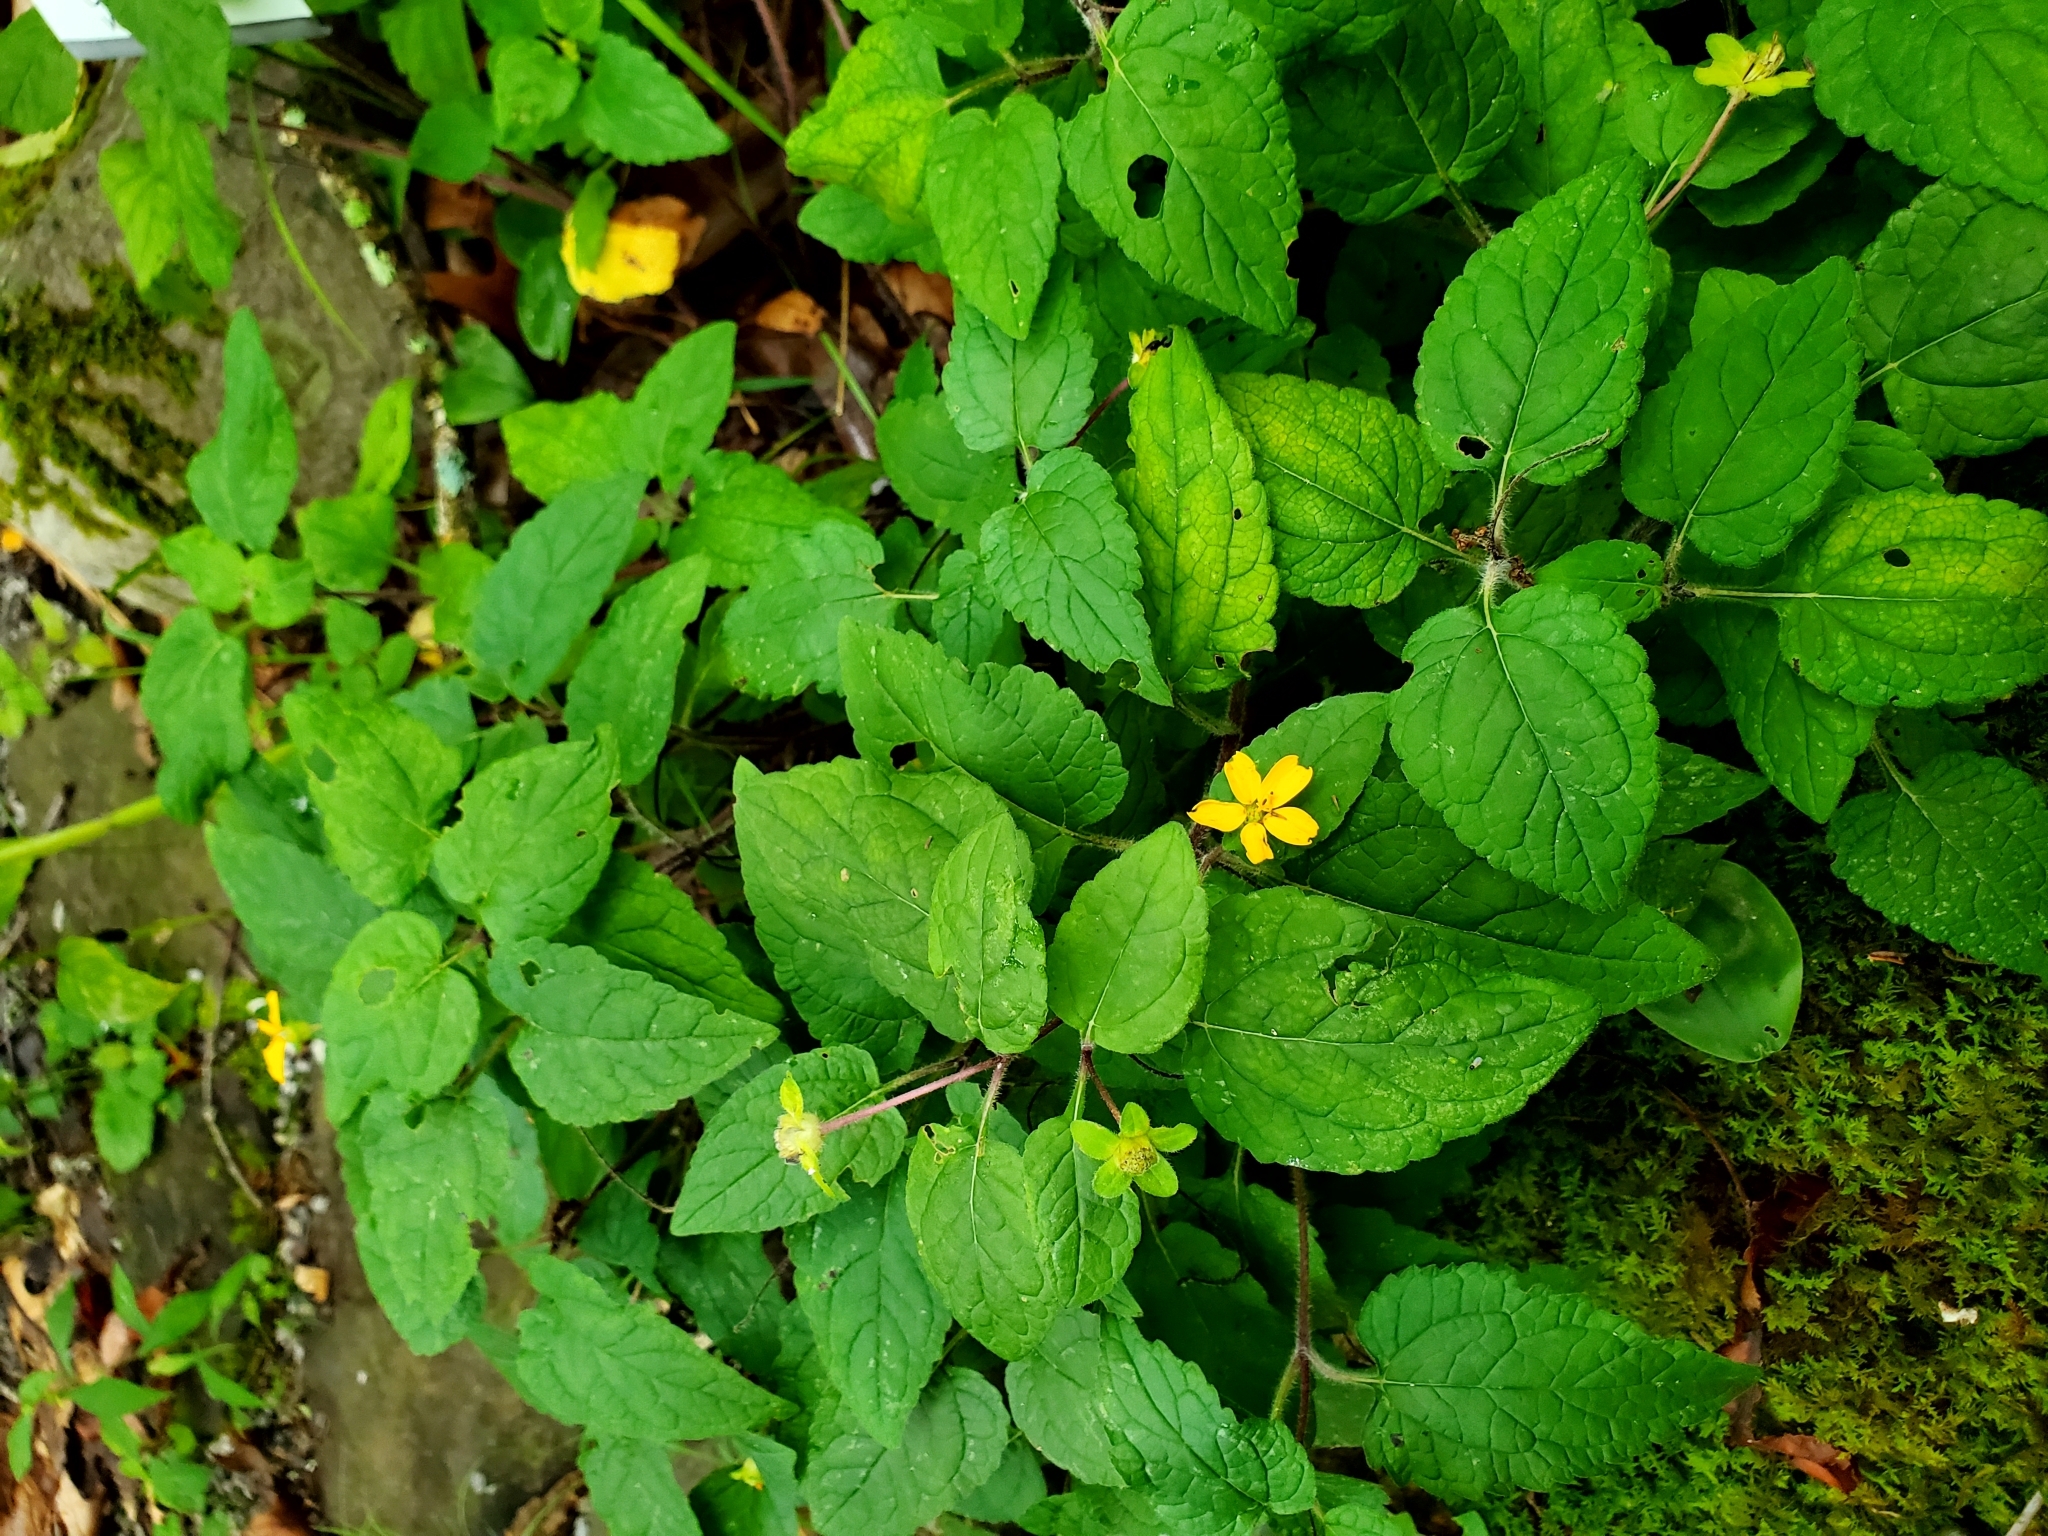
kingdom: Plantae
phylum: Tracheophyta
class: Magnoliopsida
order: Asterales
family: Asteraceae
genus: Chrysogonum
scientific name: Chrysogonum virginianum
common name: Golden-knee
